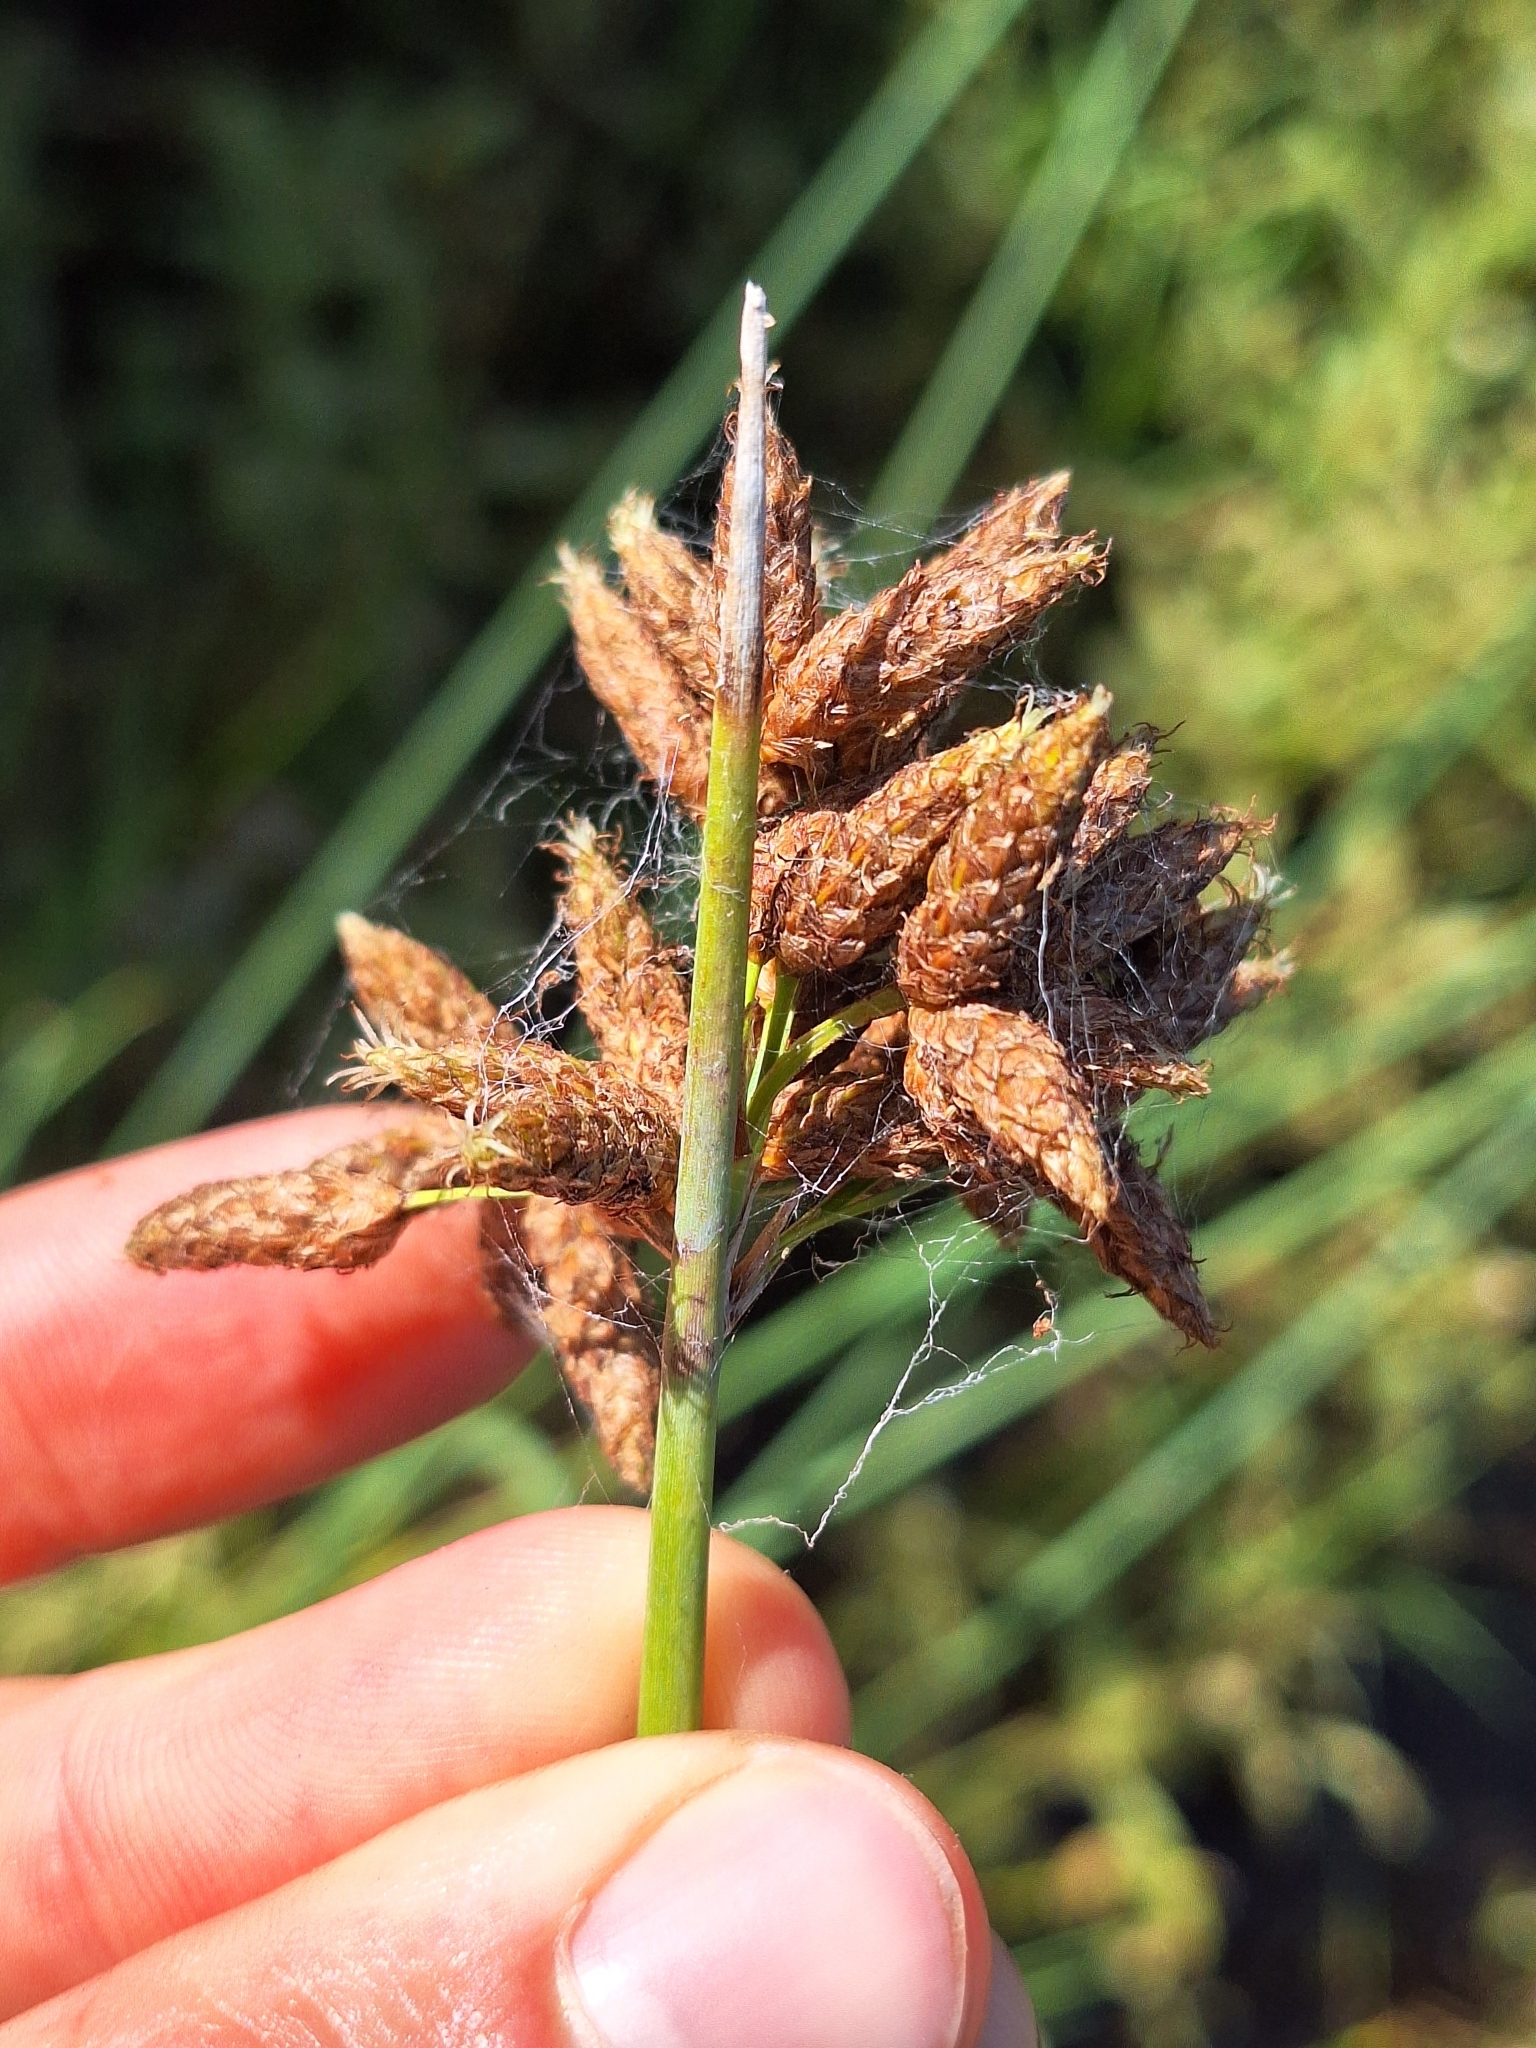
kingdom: Plantae
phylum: Tracheophyta
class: Liliopsida
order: Poales
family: Cyperaceae
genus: Schoenoplectus
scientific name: Schoenoplectus tabernaemontani
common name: Grey club-rush
